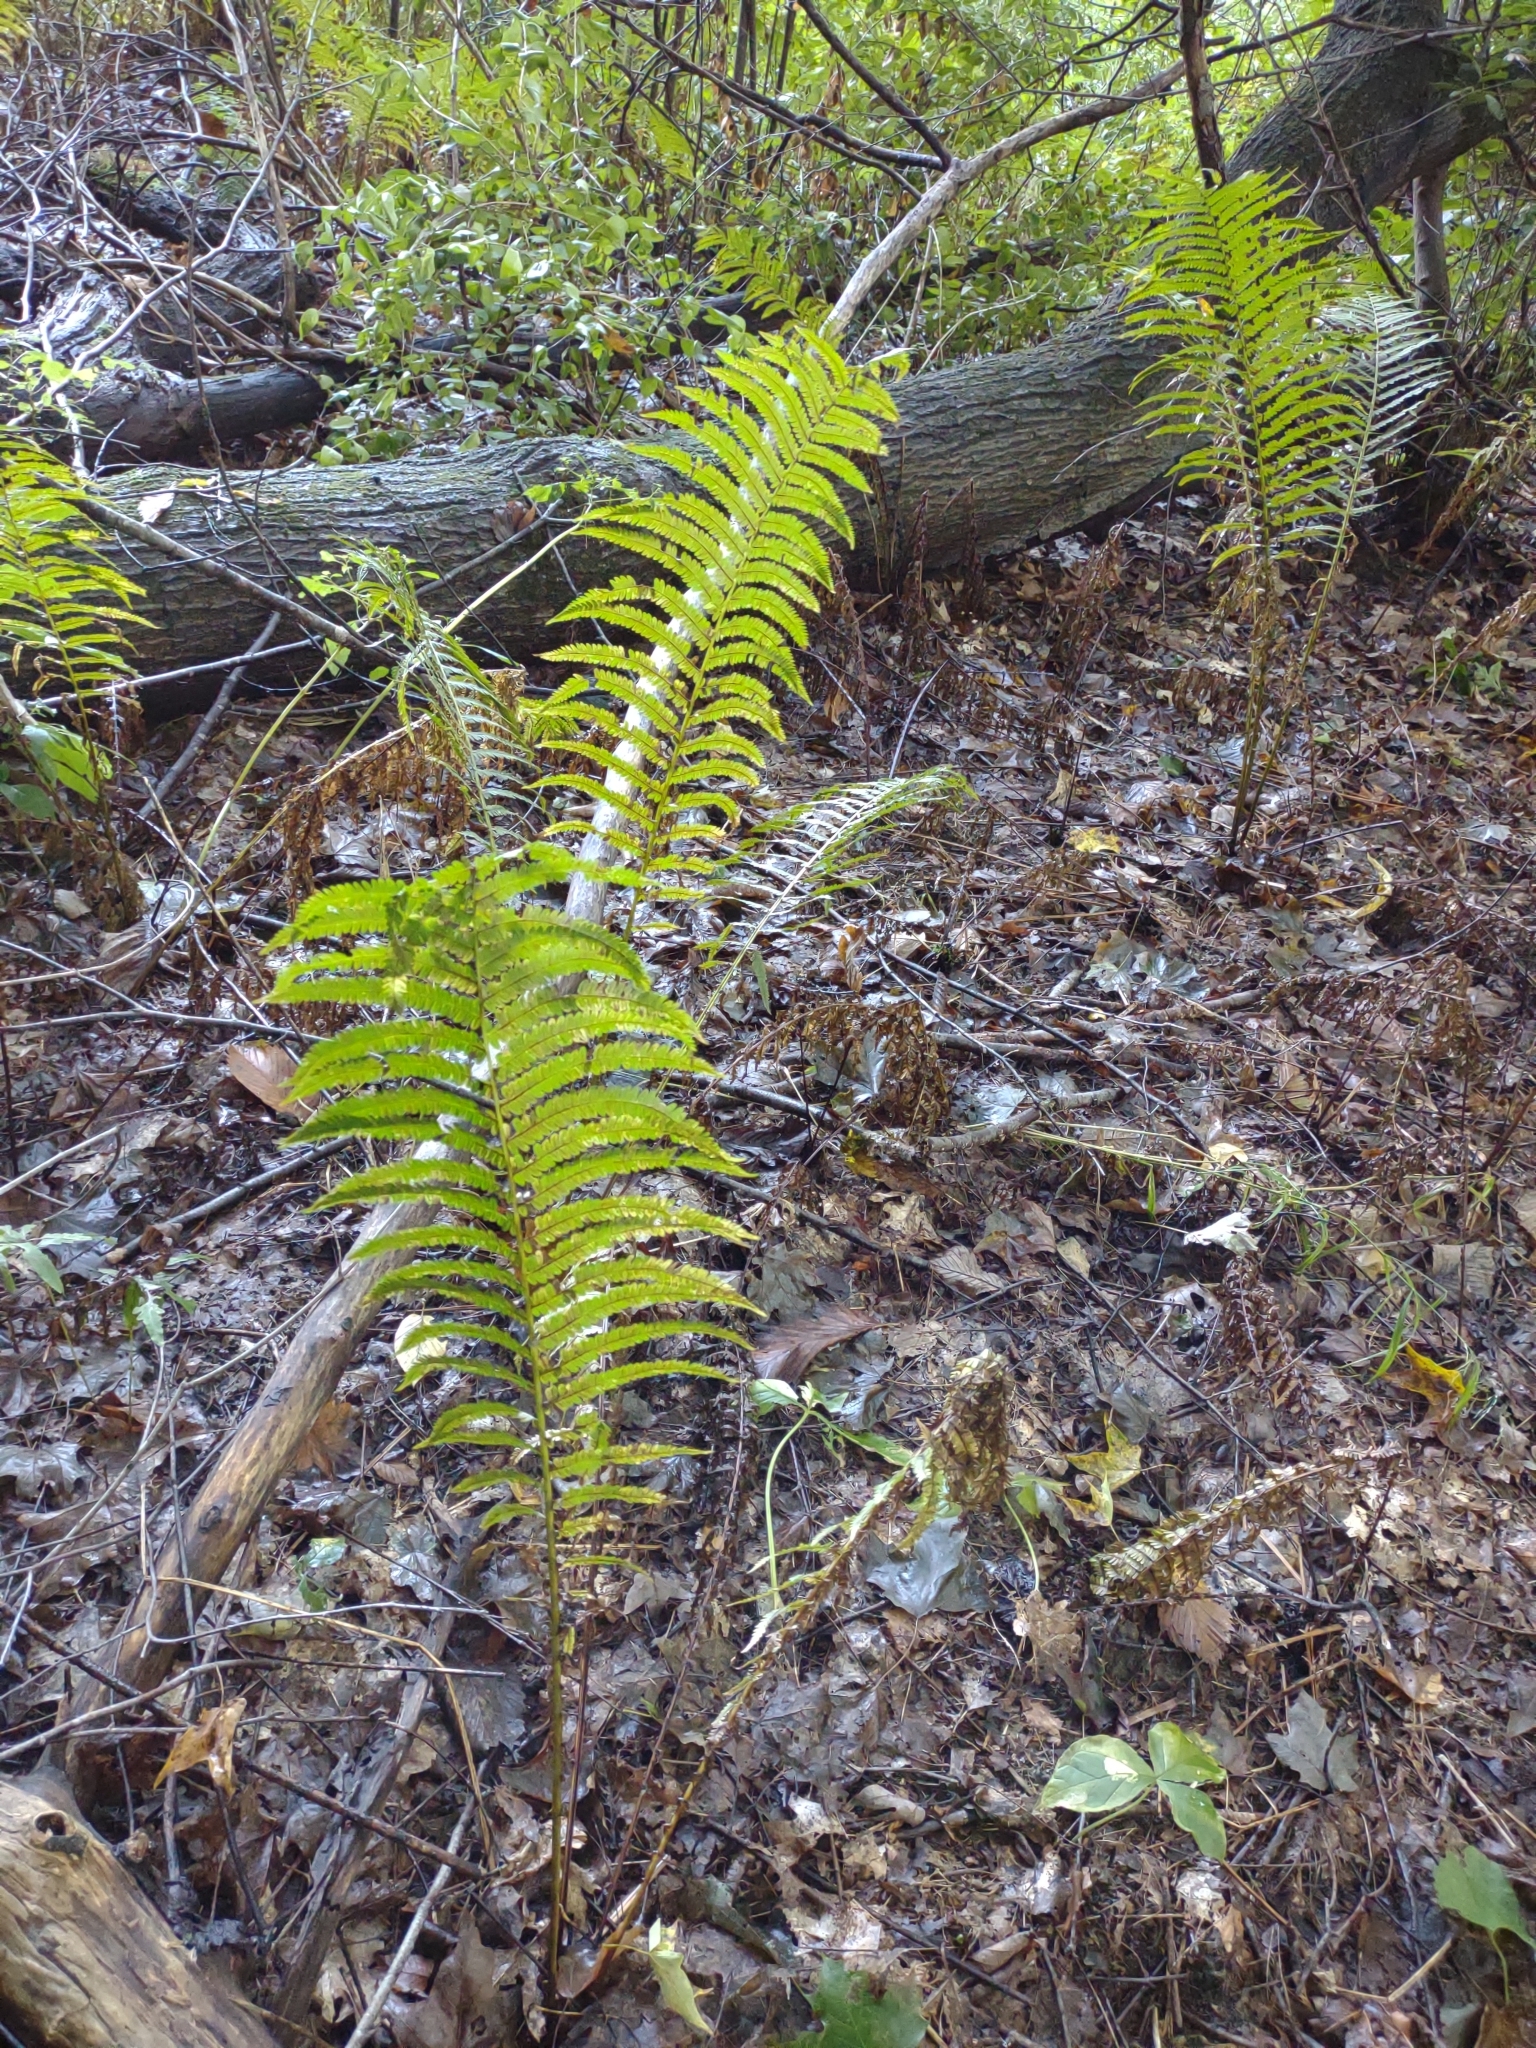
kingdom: Plantae
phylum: Tracheophyta
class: Polypodiopsida
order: Polypodiales
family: Onocleaceae
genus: Matteuccia
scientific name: Matteuccia struthiopteris
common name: Ostrich fern
